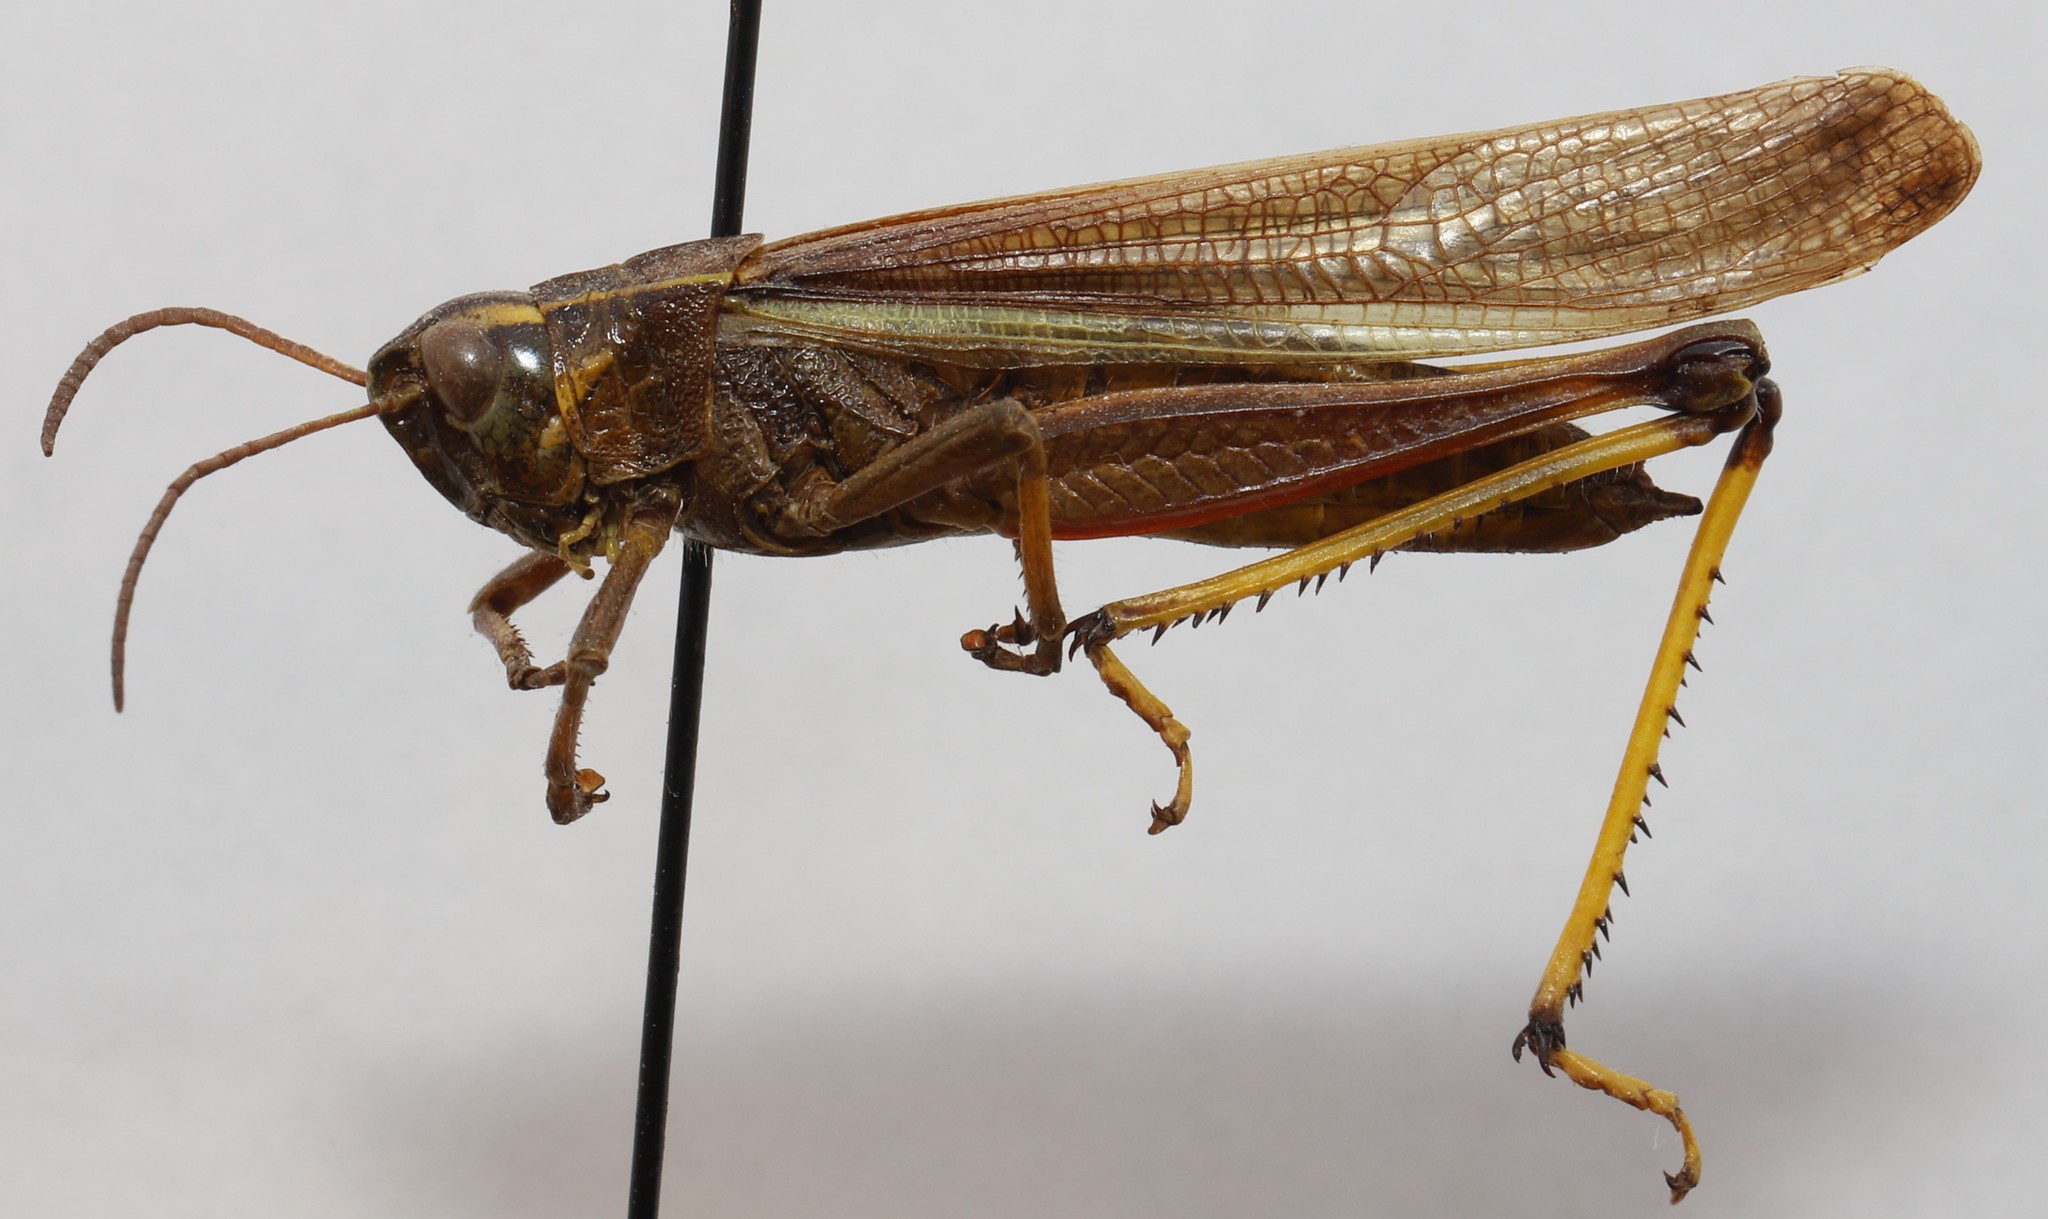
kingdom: Animalia
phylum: Arthropoda
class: Insecta
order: Orthoptera
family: Acrididae
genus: Stethophyma
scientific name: Stethophyma lineatum
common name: Striped sedge locust
